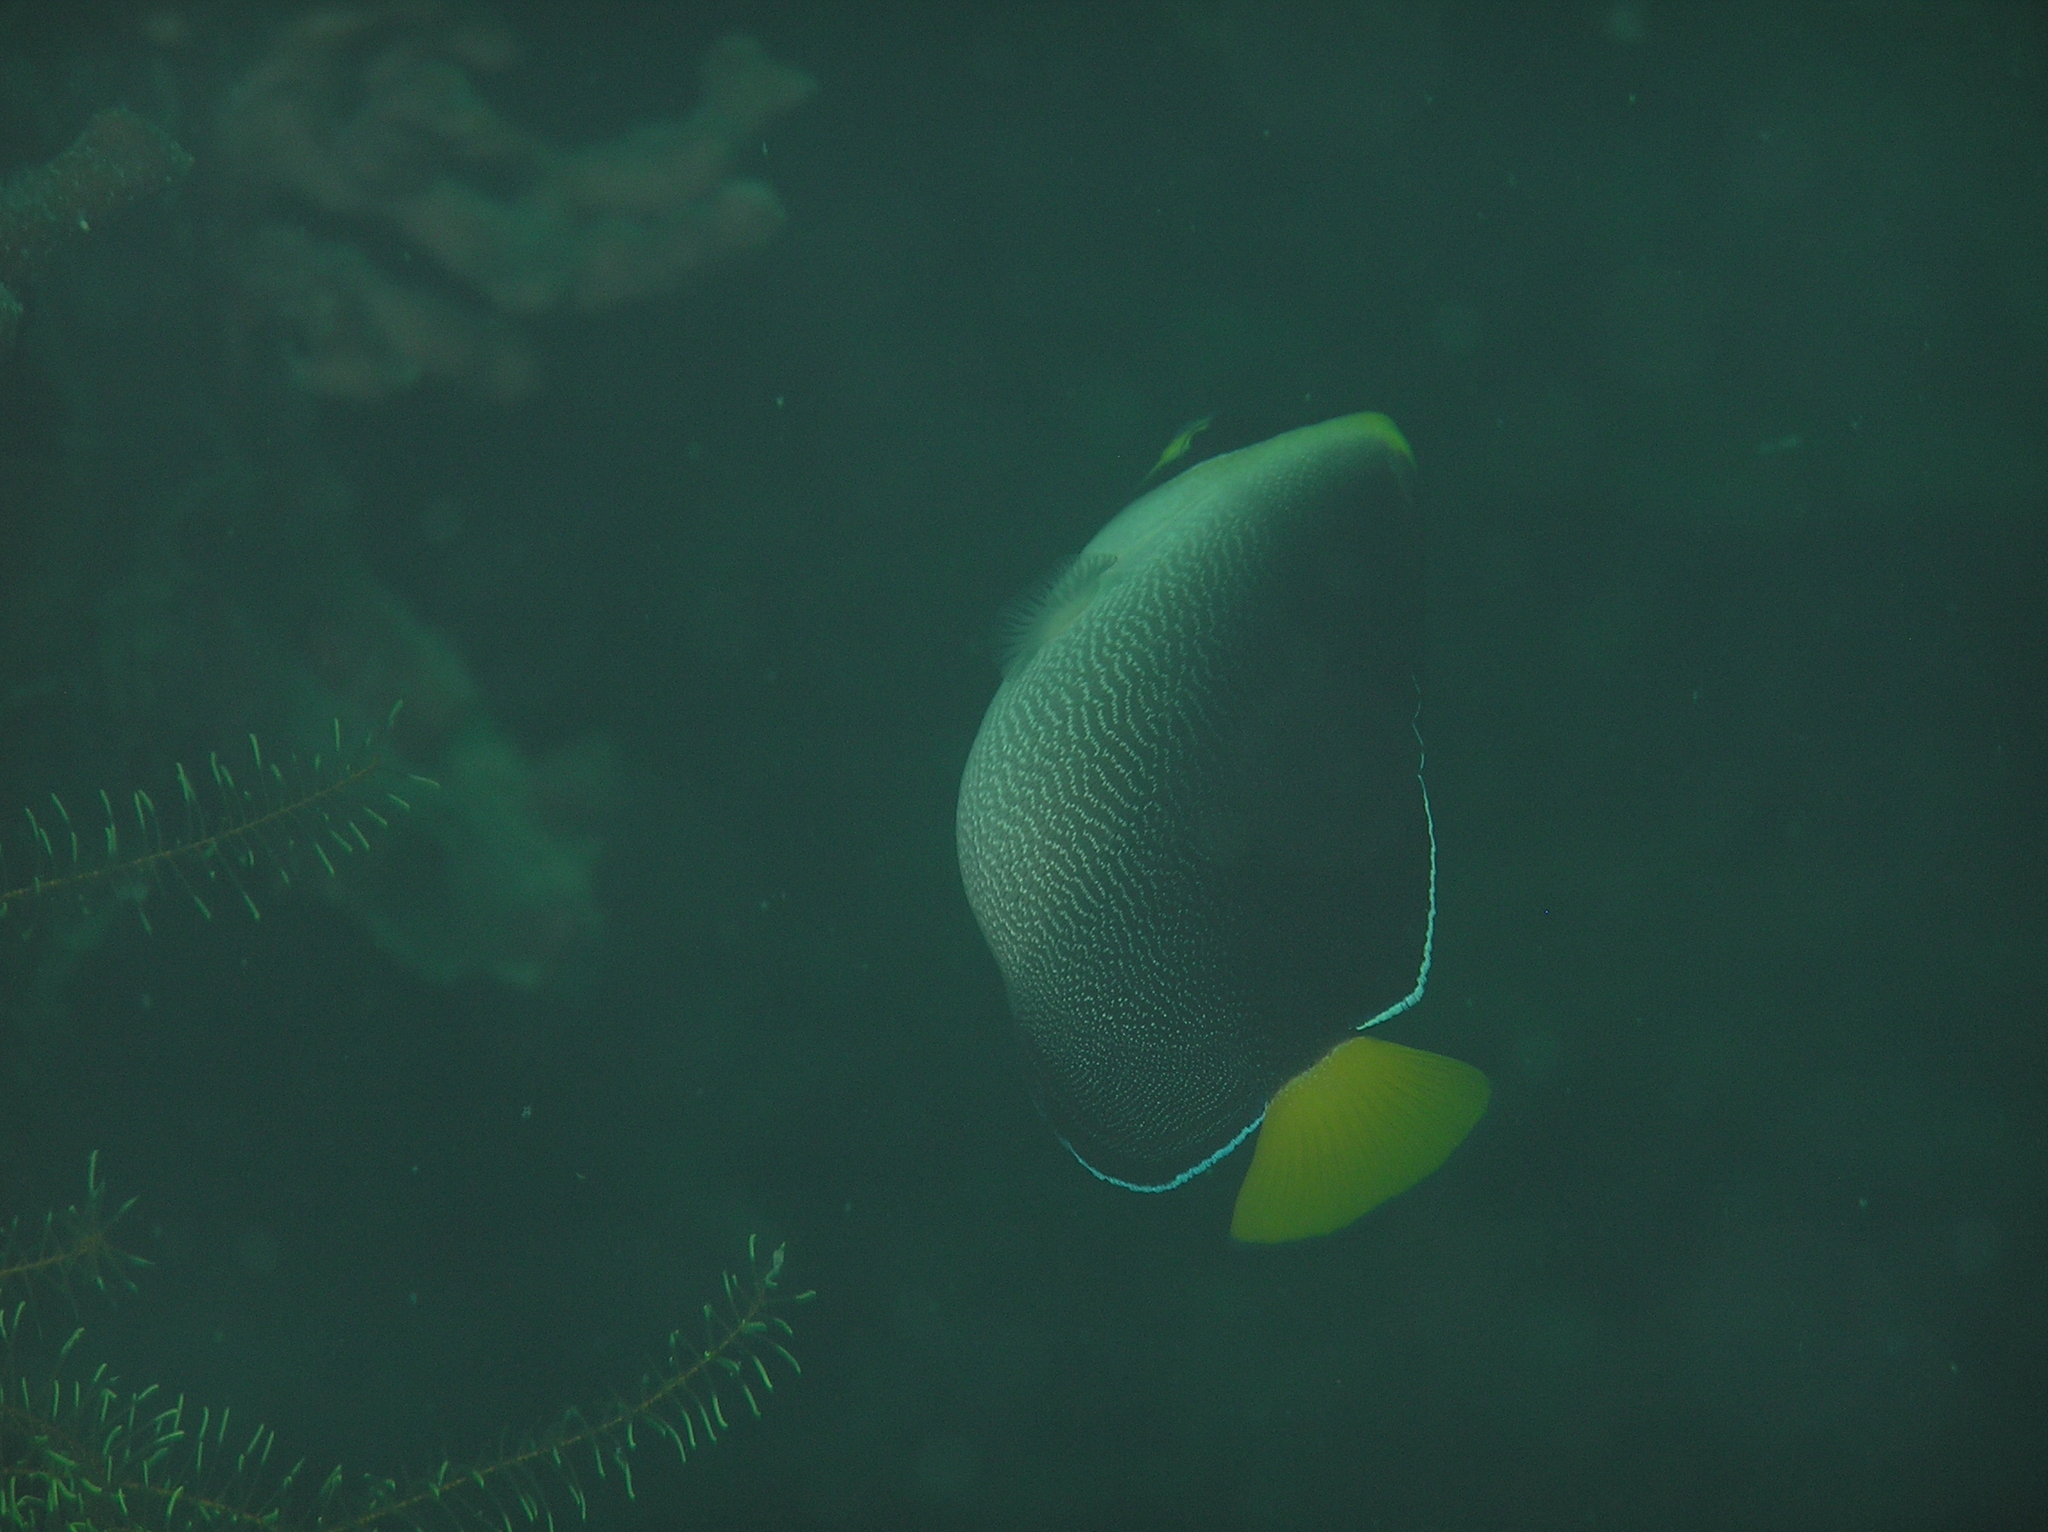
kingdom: Animalia
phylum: Chordata
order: Perciformes
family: Pomacanthidae
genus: Chaetodontoplus
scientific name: Chaetodontoplus mesoleucus
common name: Vermiculated angelfish
